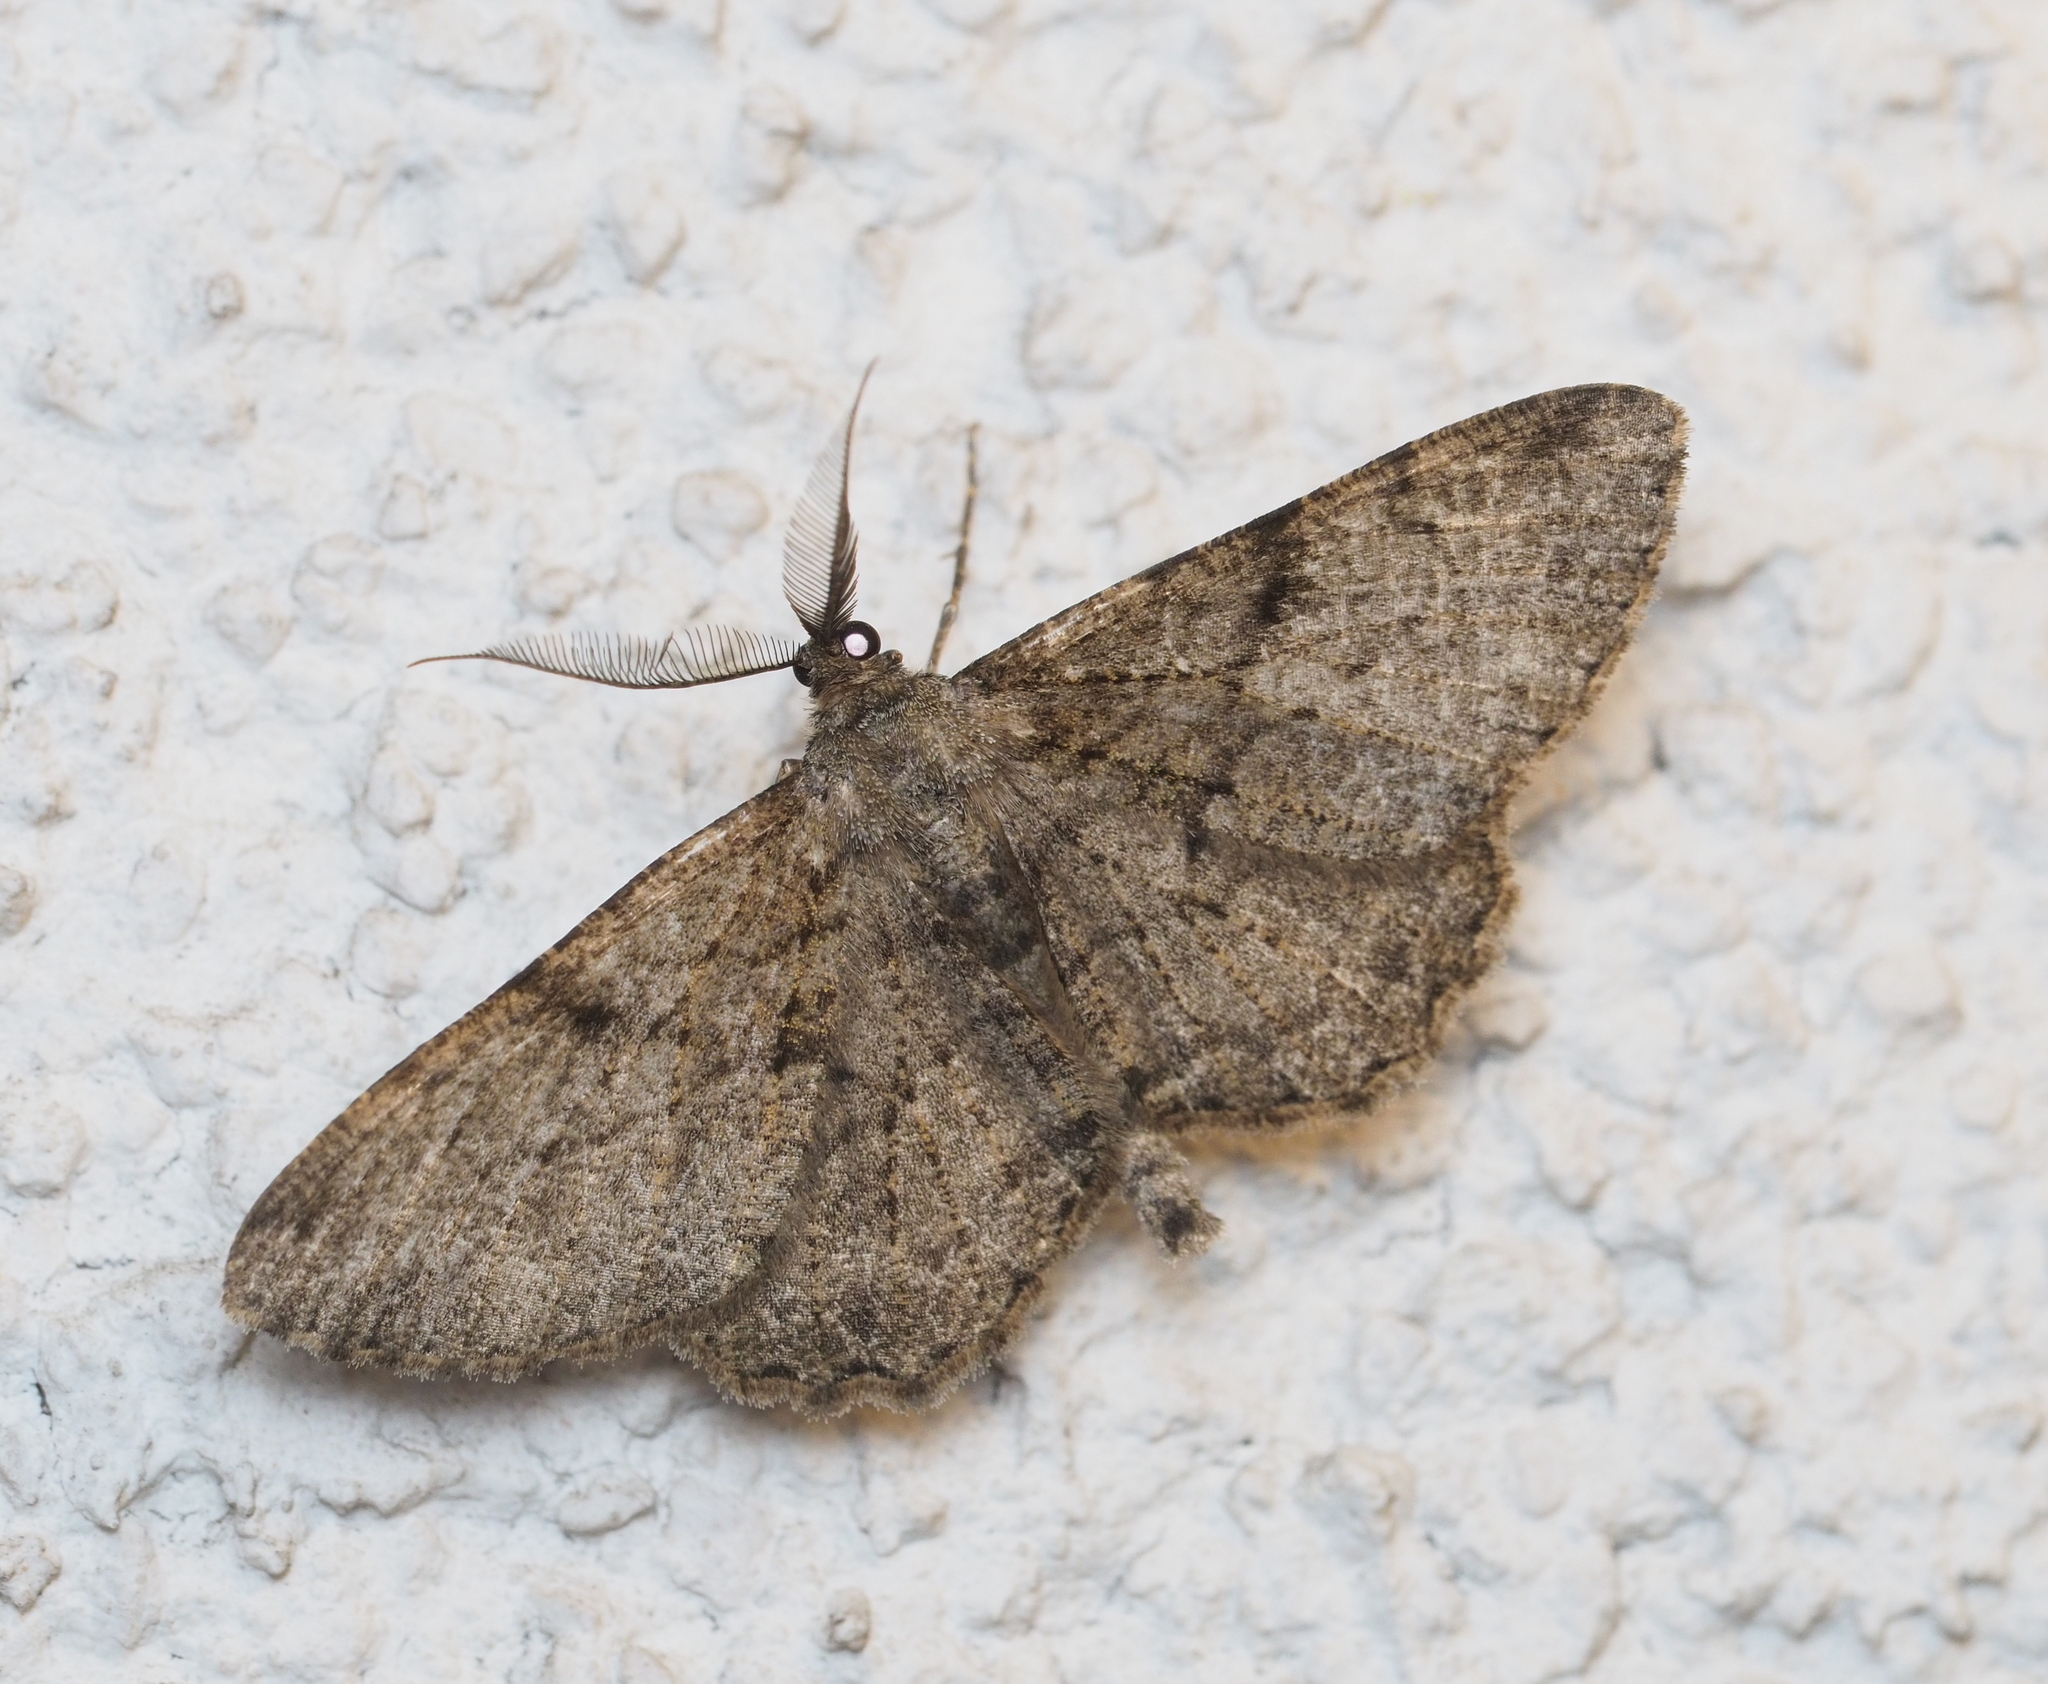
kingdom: Animalia
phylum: Arthropoda
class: Insecta
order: Lepidoptera
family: Geometridae
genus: Peribatodes
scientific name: Peribatodes rhomboidaria
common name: Willow beauty
